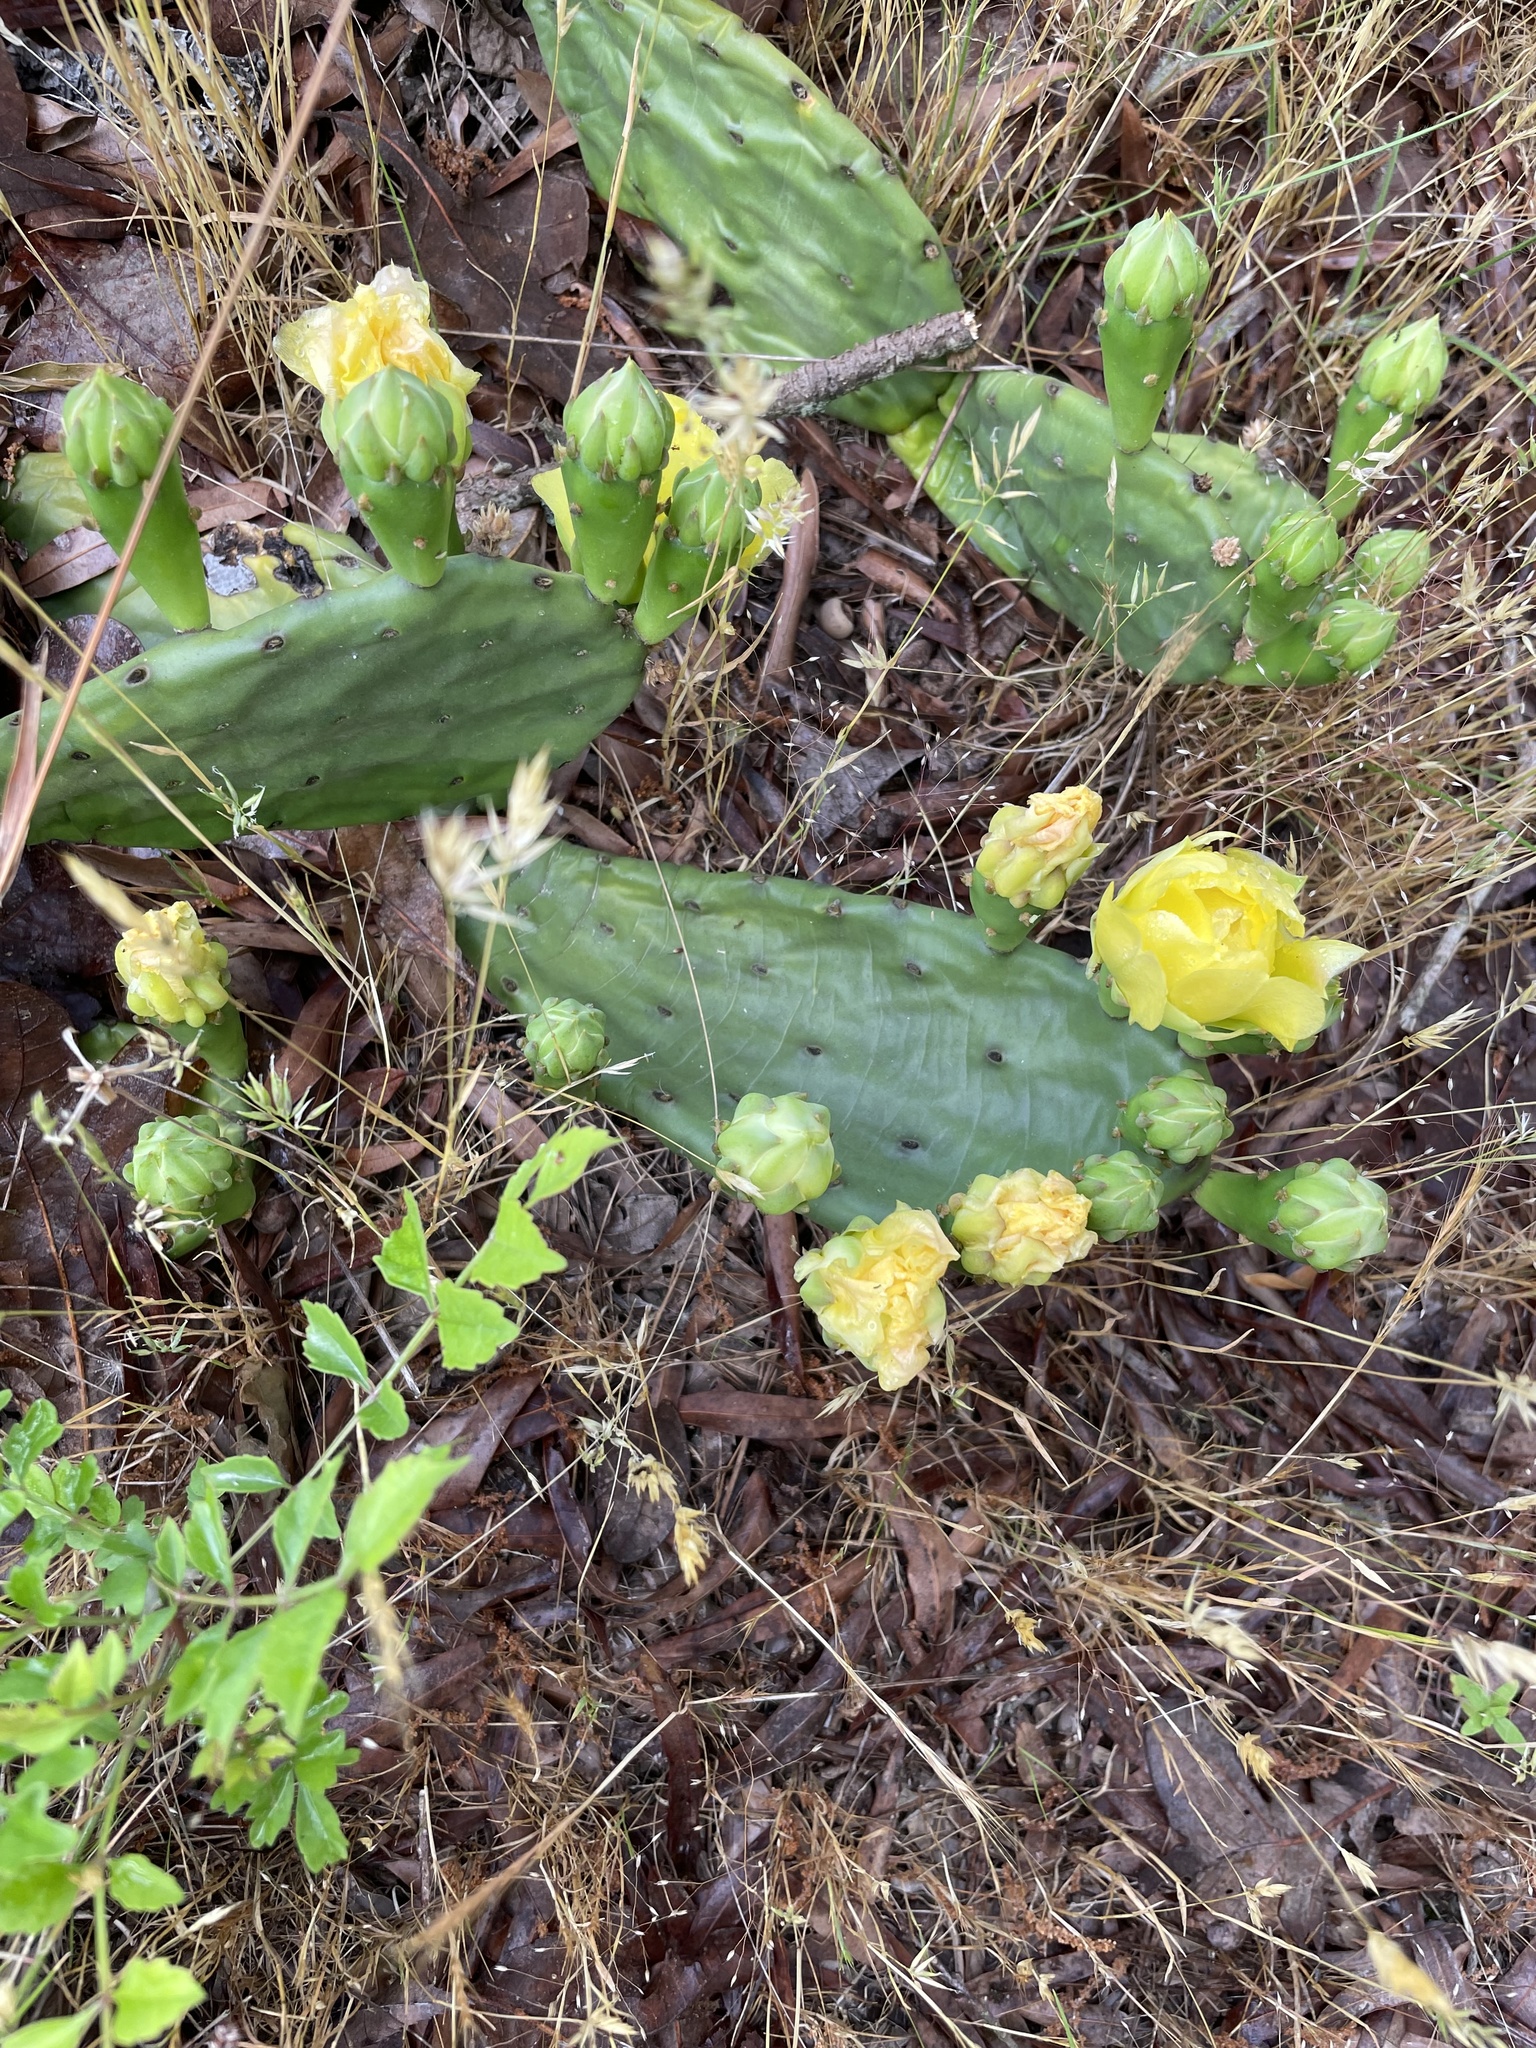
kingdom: Plantae
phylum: Tracheophyta
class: Magnoliopsida
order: Caryophyllales
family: Cactaceae
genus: Opuntia
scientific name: Opuntia mesacantha
